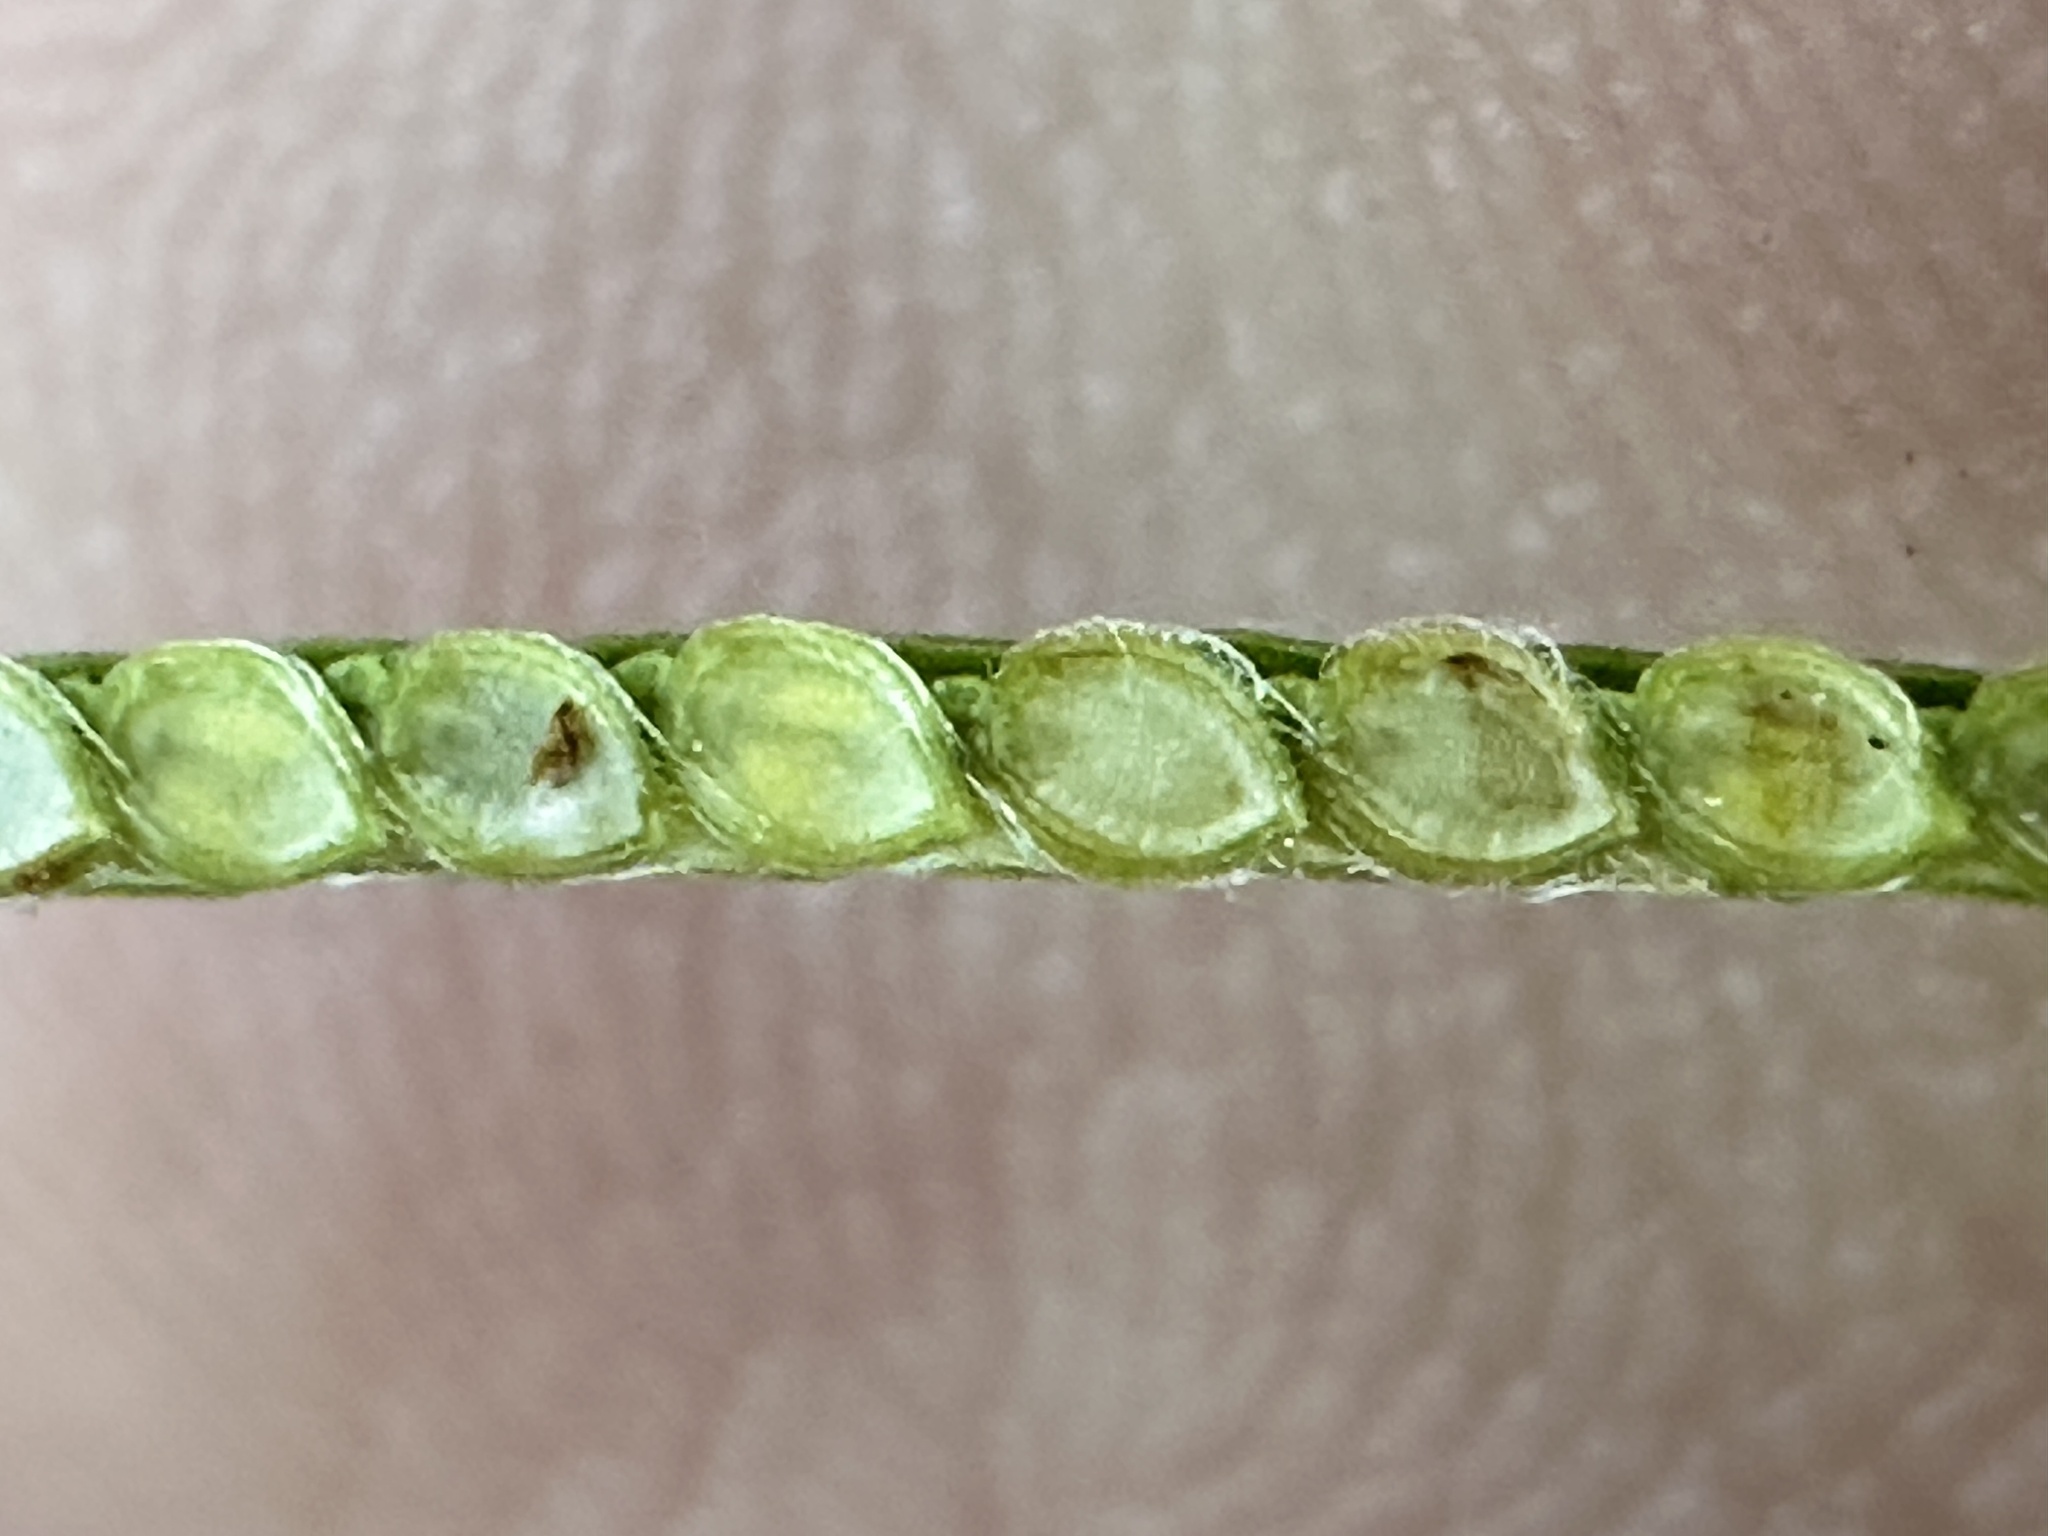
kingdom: Plantae
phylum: Tracheophyta
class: Liliopsida
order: Poales
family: Poaceae
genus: Paspalum
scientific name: Paspalum conjugatum
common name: Hilograss
